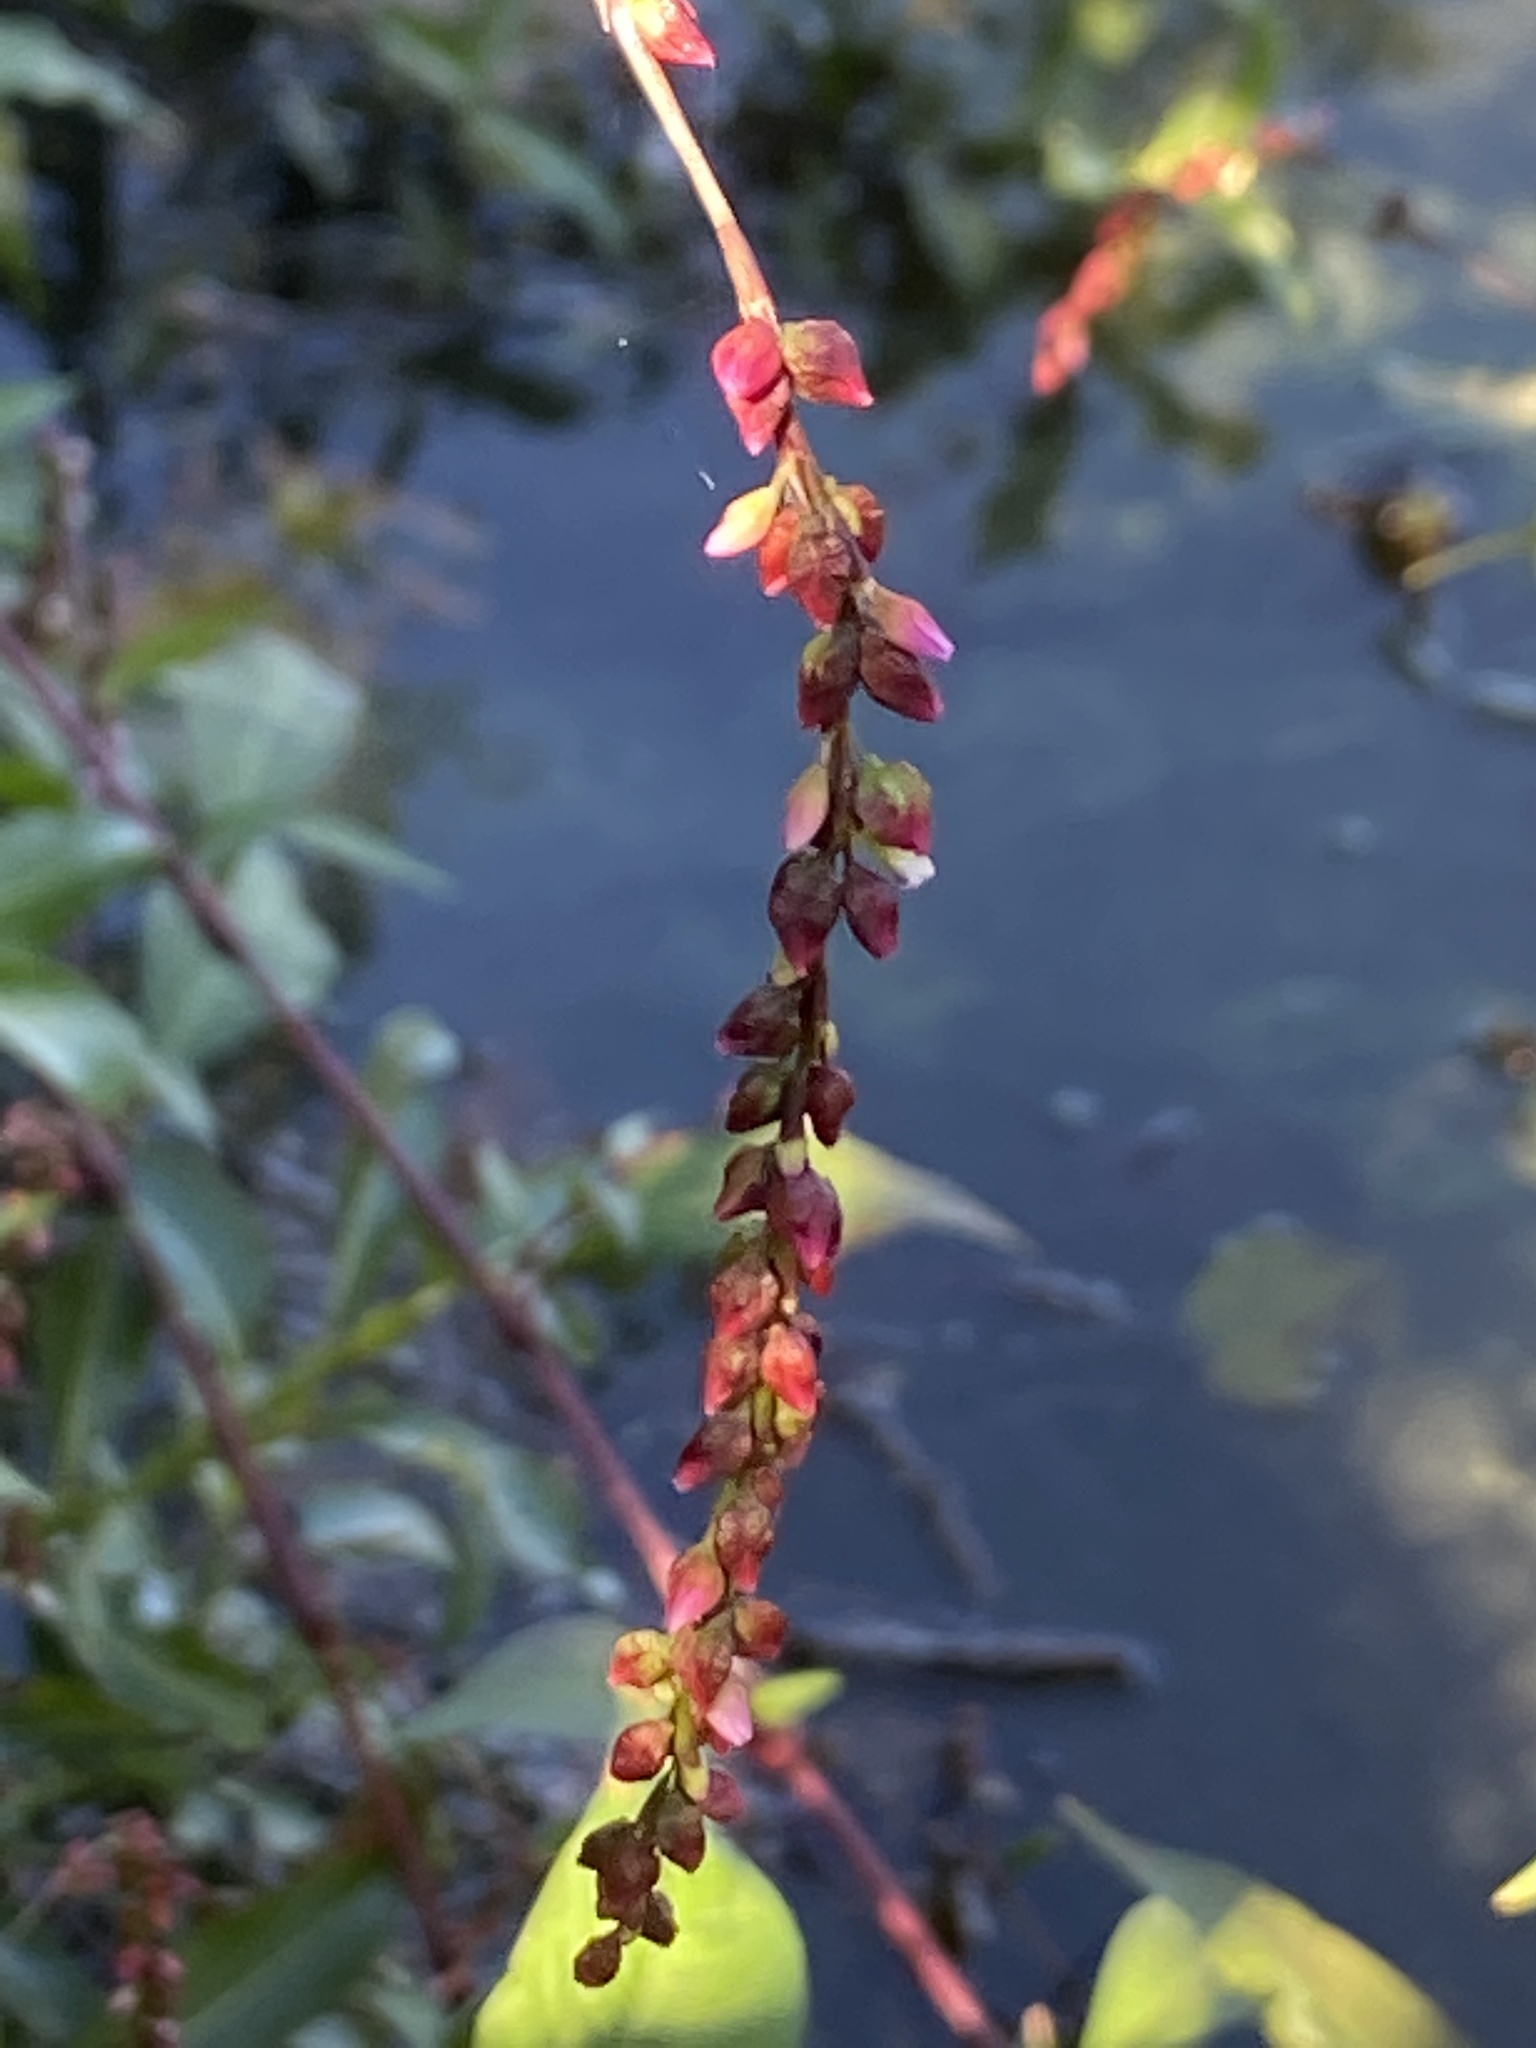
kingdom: Plantae
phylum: Tracheophyta
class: Magnoliopsida
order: Caryophyllales
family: Polygonaceae
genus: Persicaria
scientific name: Persicaria hydropiper
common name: Water-pepper
